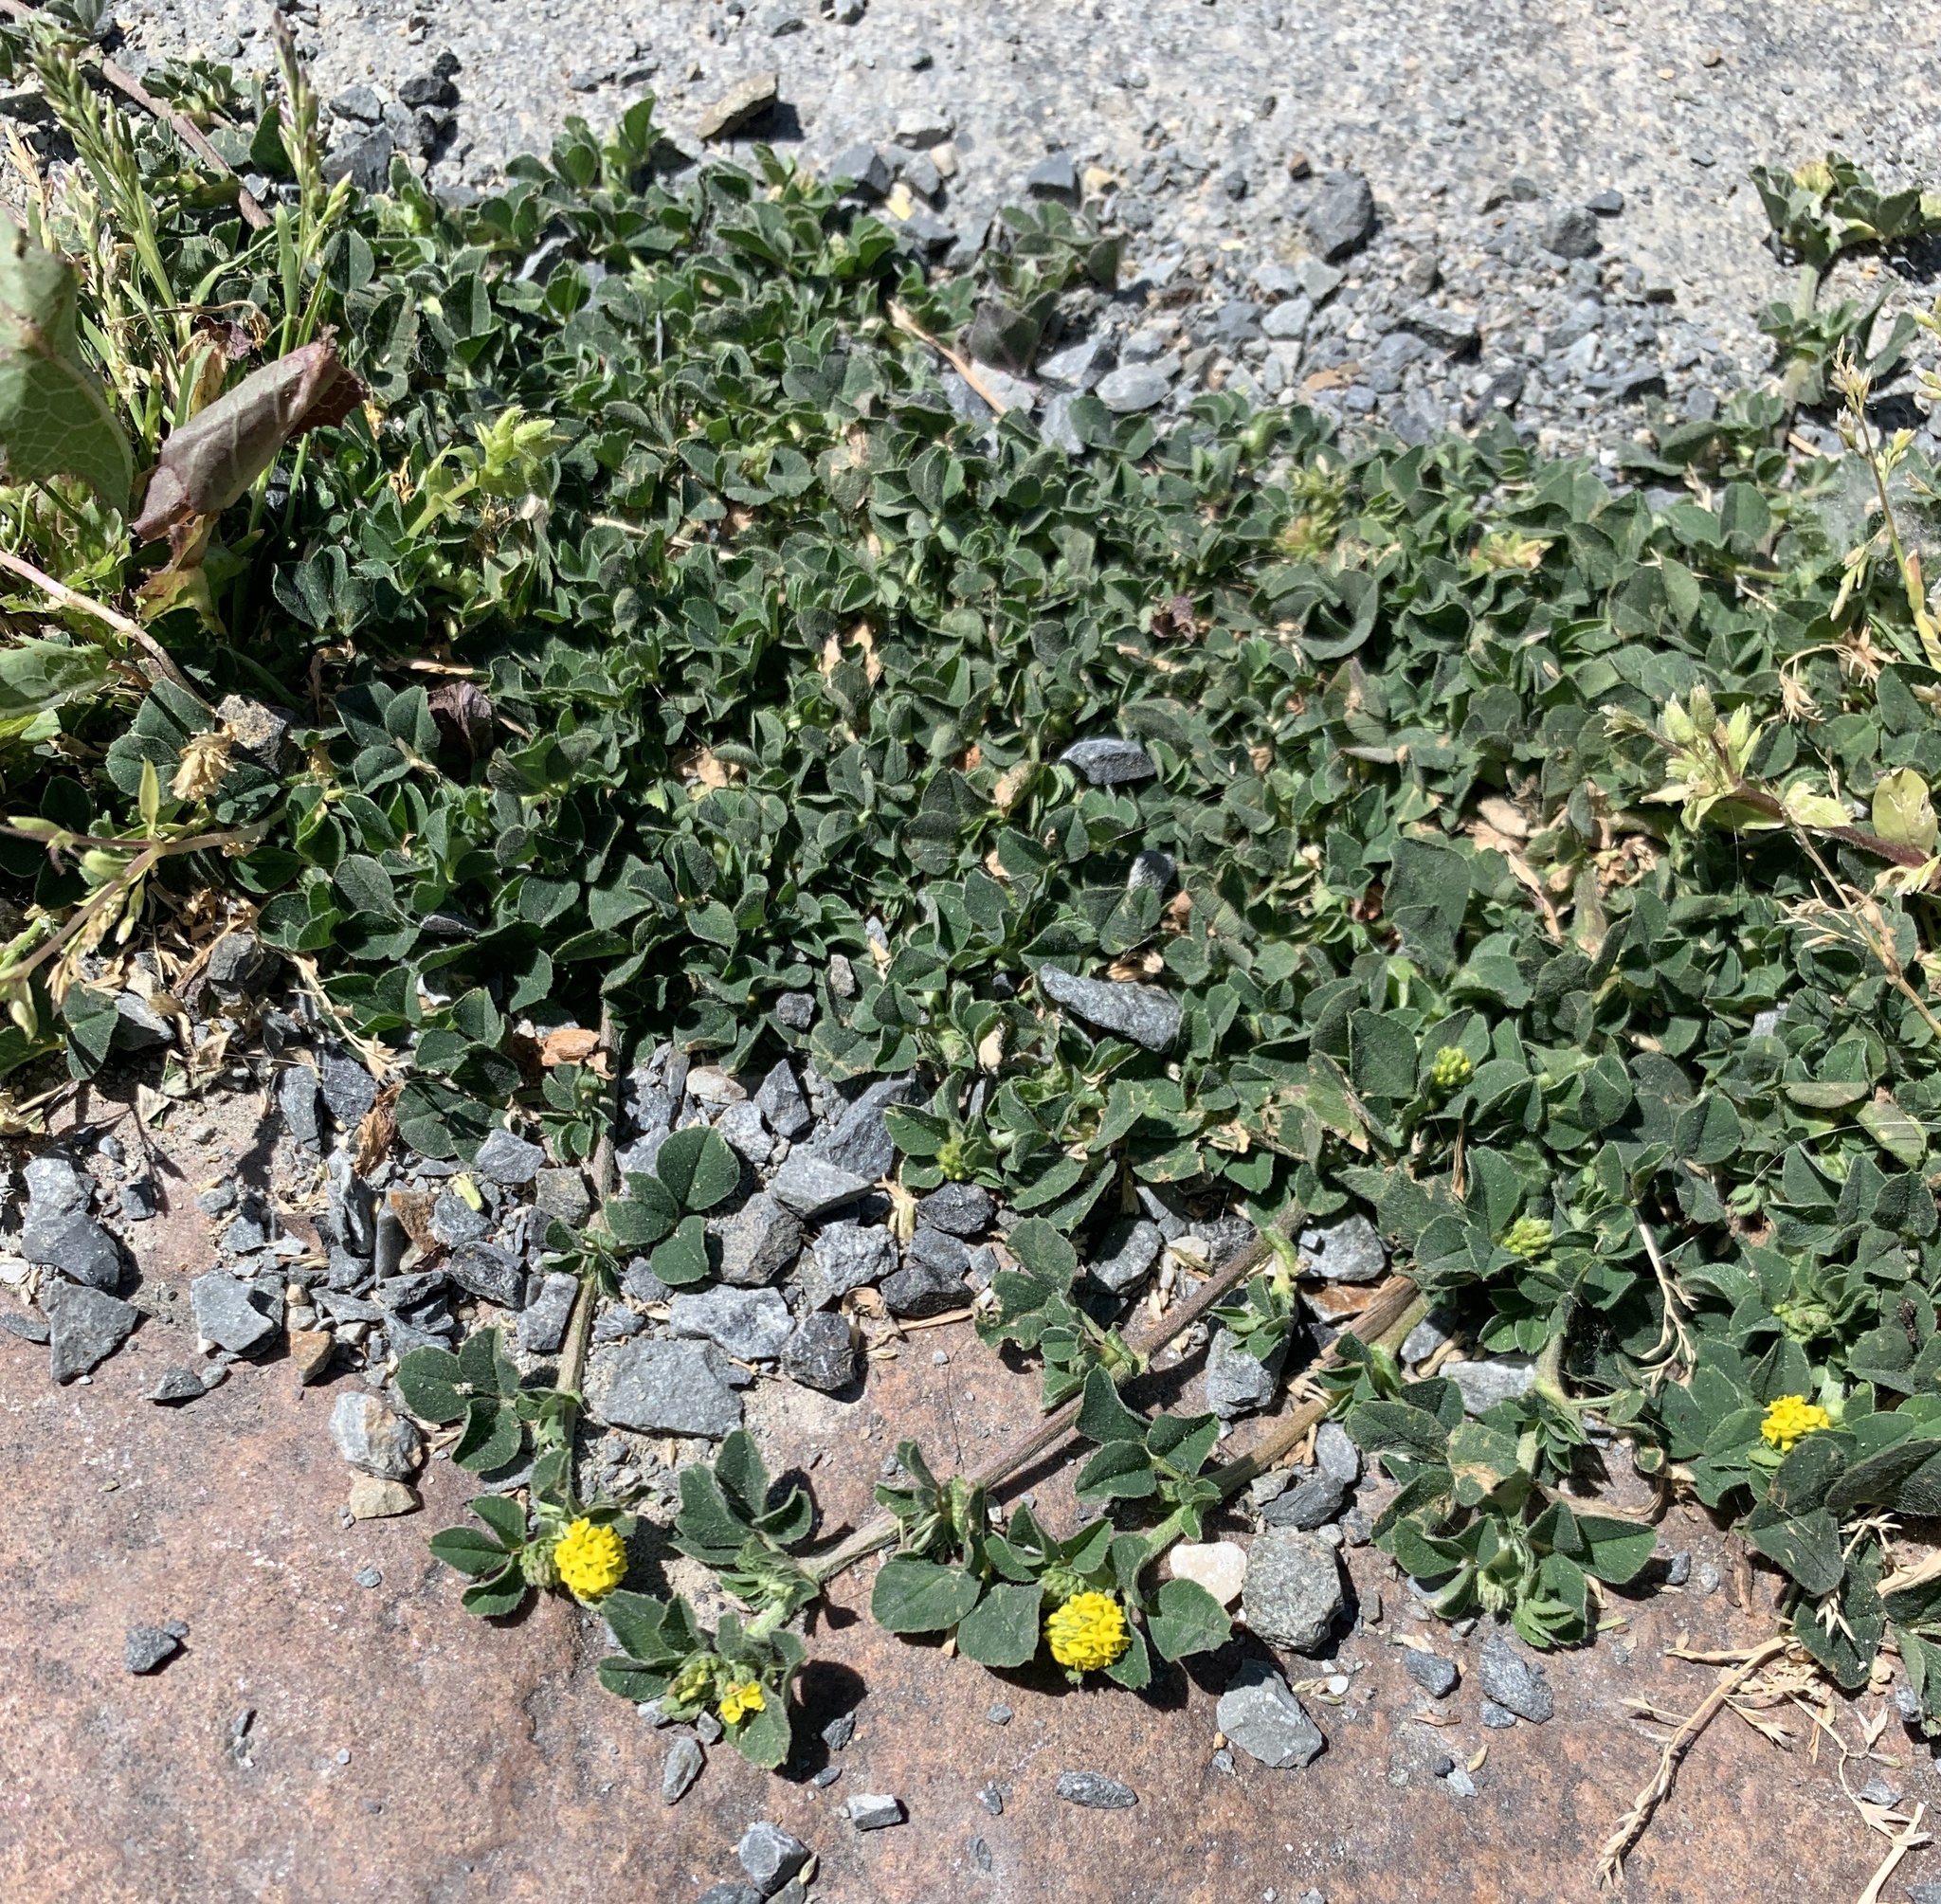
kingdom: Plantae
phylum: Tracheophyta
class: Magnoliopsida
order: Fabales
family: Fabaceae
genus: Medicago
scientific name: Medicago lupulina
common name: Black medick
